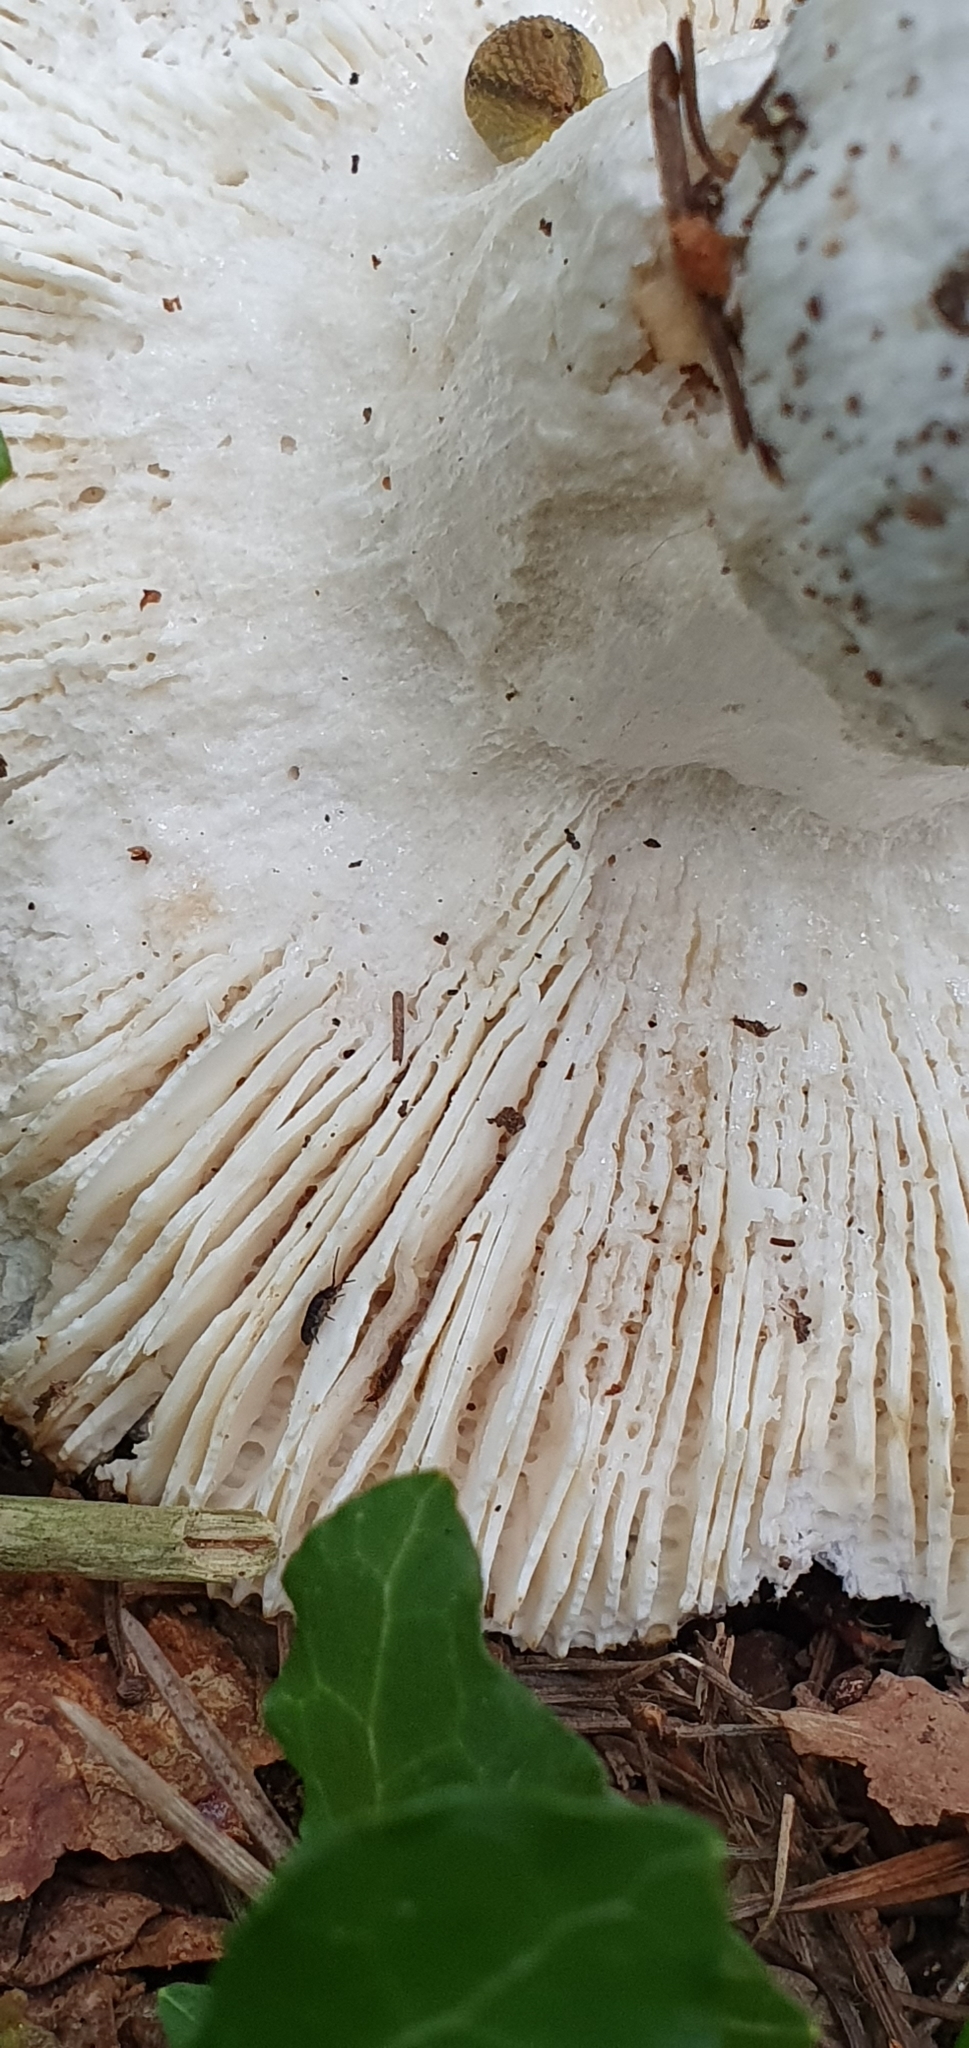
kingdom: Fungi
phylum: Basidiomycota
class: Agaricomycetes
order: Russulales
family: Russulaceae
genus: Russula
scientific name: Russula cyanoxantha
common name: Charcoal burner
